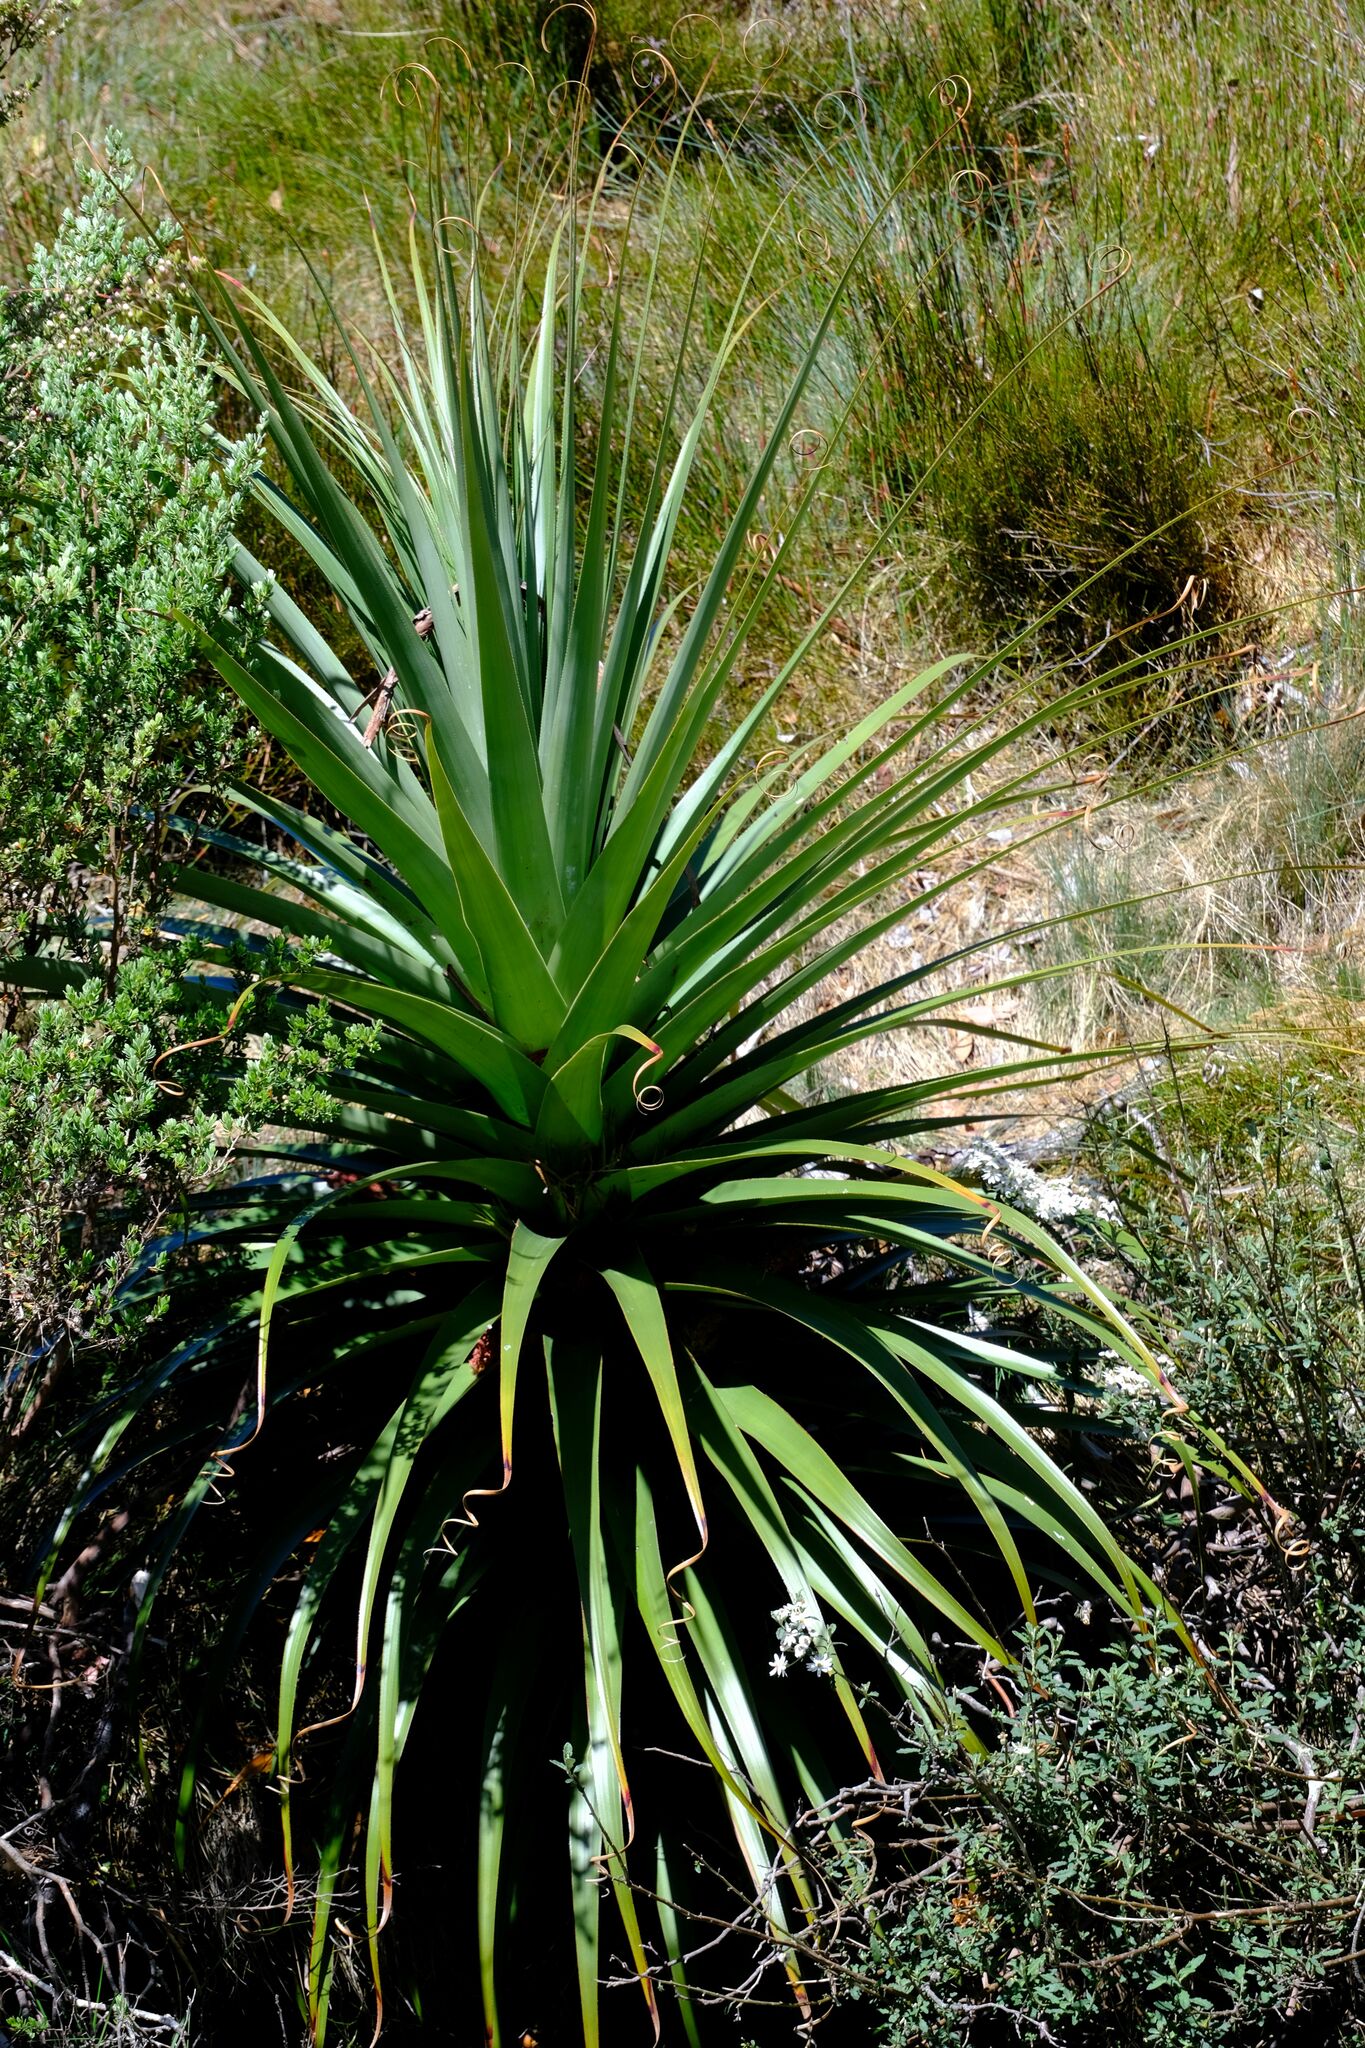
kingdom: Plantae
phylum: Tracheophyta
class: Magnoliopsida
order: Ericales
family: Ericaceae
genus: Dracophyllum
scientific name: Dracophyllum pandanifolium
